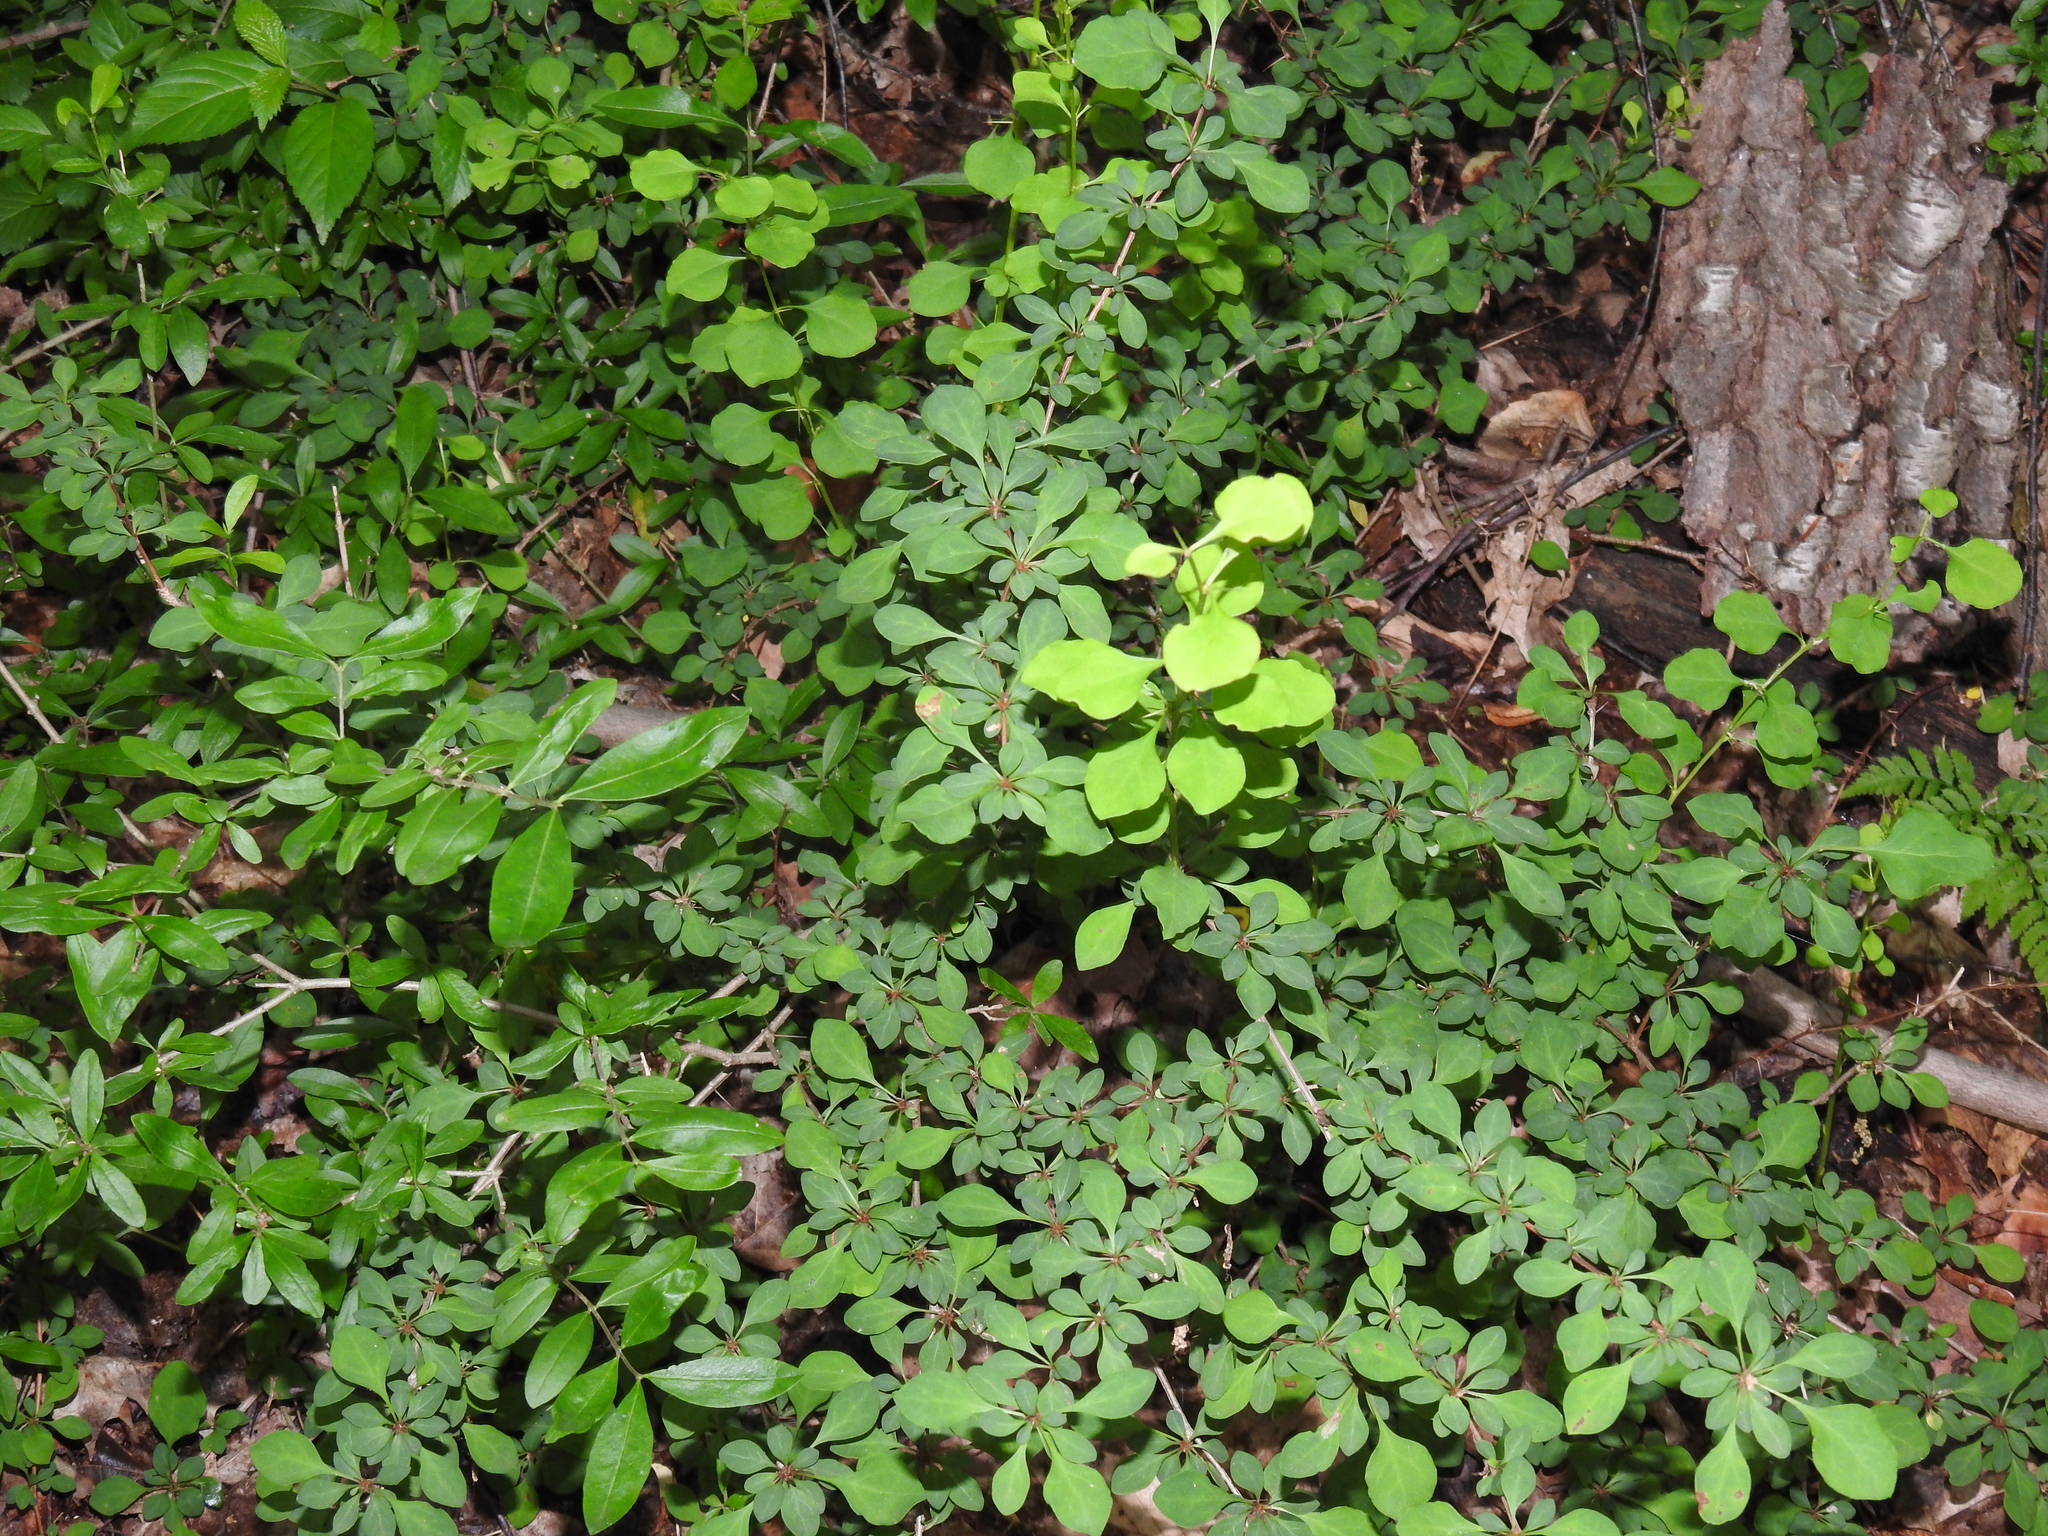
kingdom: Plantae
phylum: Tracheophyta
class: Magnoliopsida
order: Ranunculales
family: Berberidaceae
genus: Berberis
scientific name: Berberis thunbergii
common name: Japanese barberry
